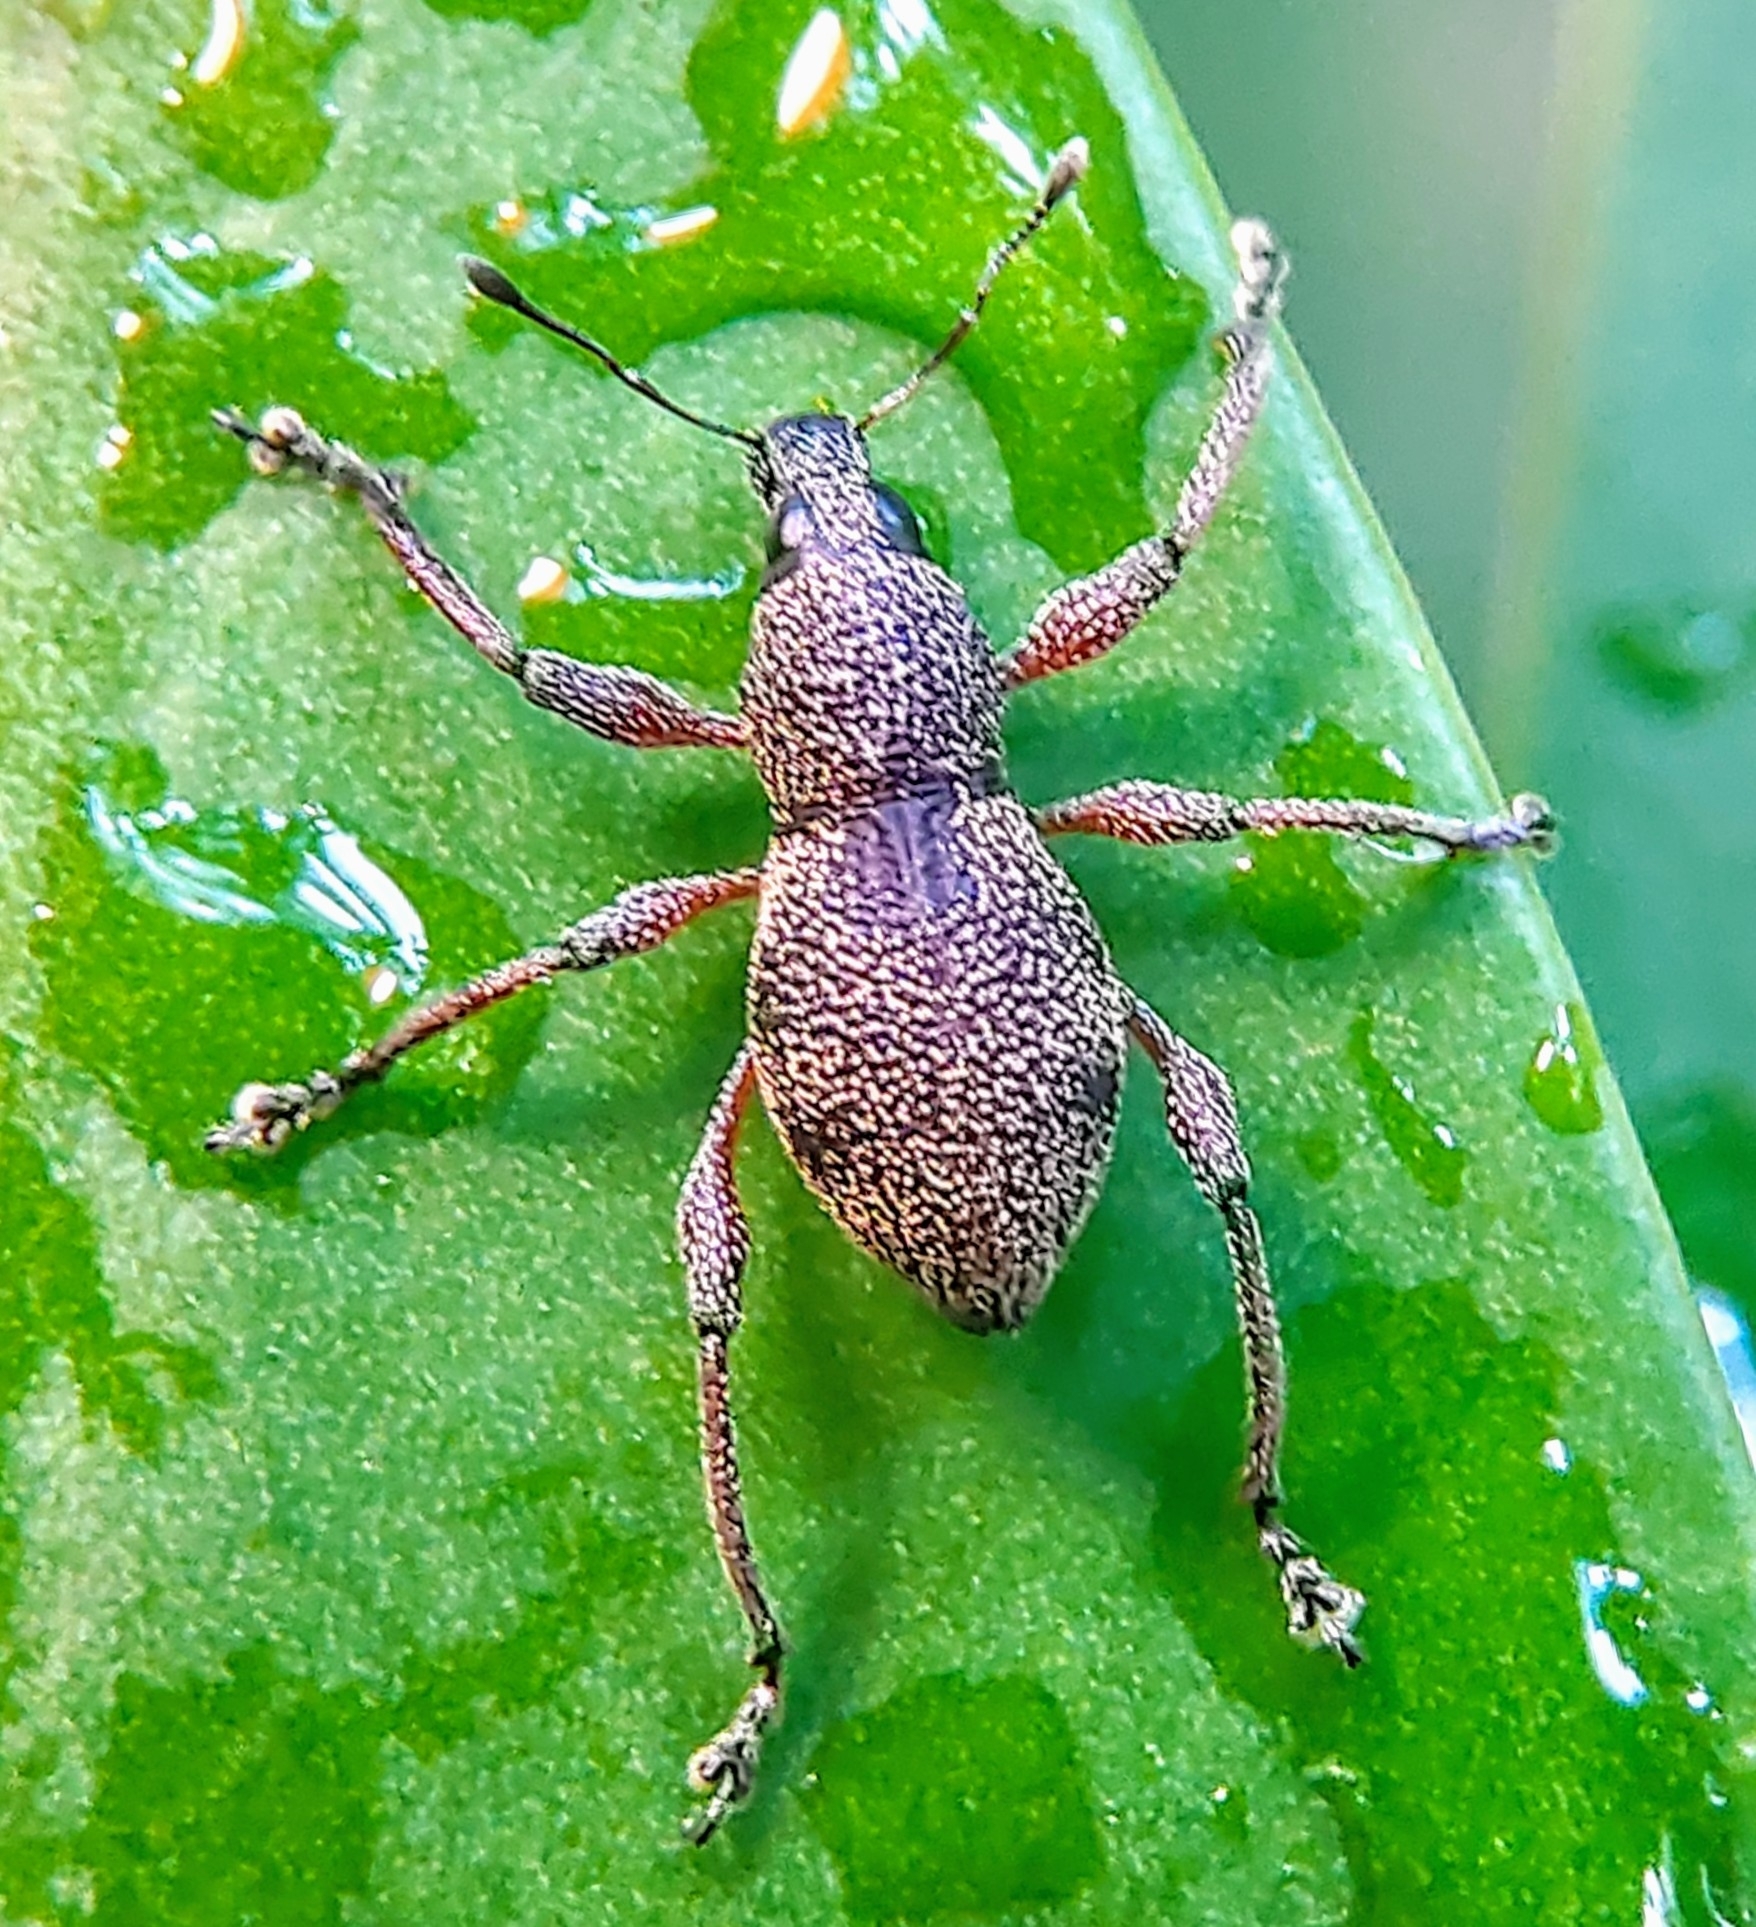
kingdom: Animalia
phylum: Arthropoda
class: Insecta
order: Coleoptera
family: Curculionidae
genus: Metapocyrtus
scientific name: Metapocyrtus adspersus
